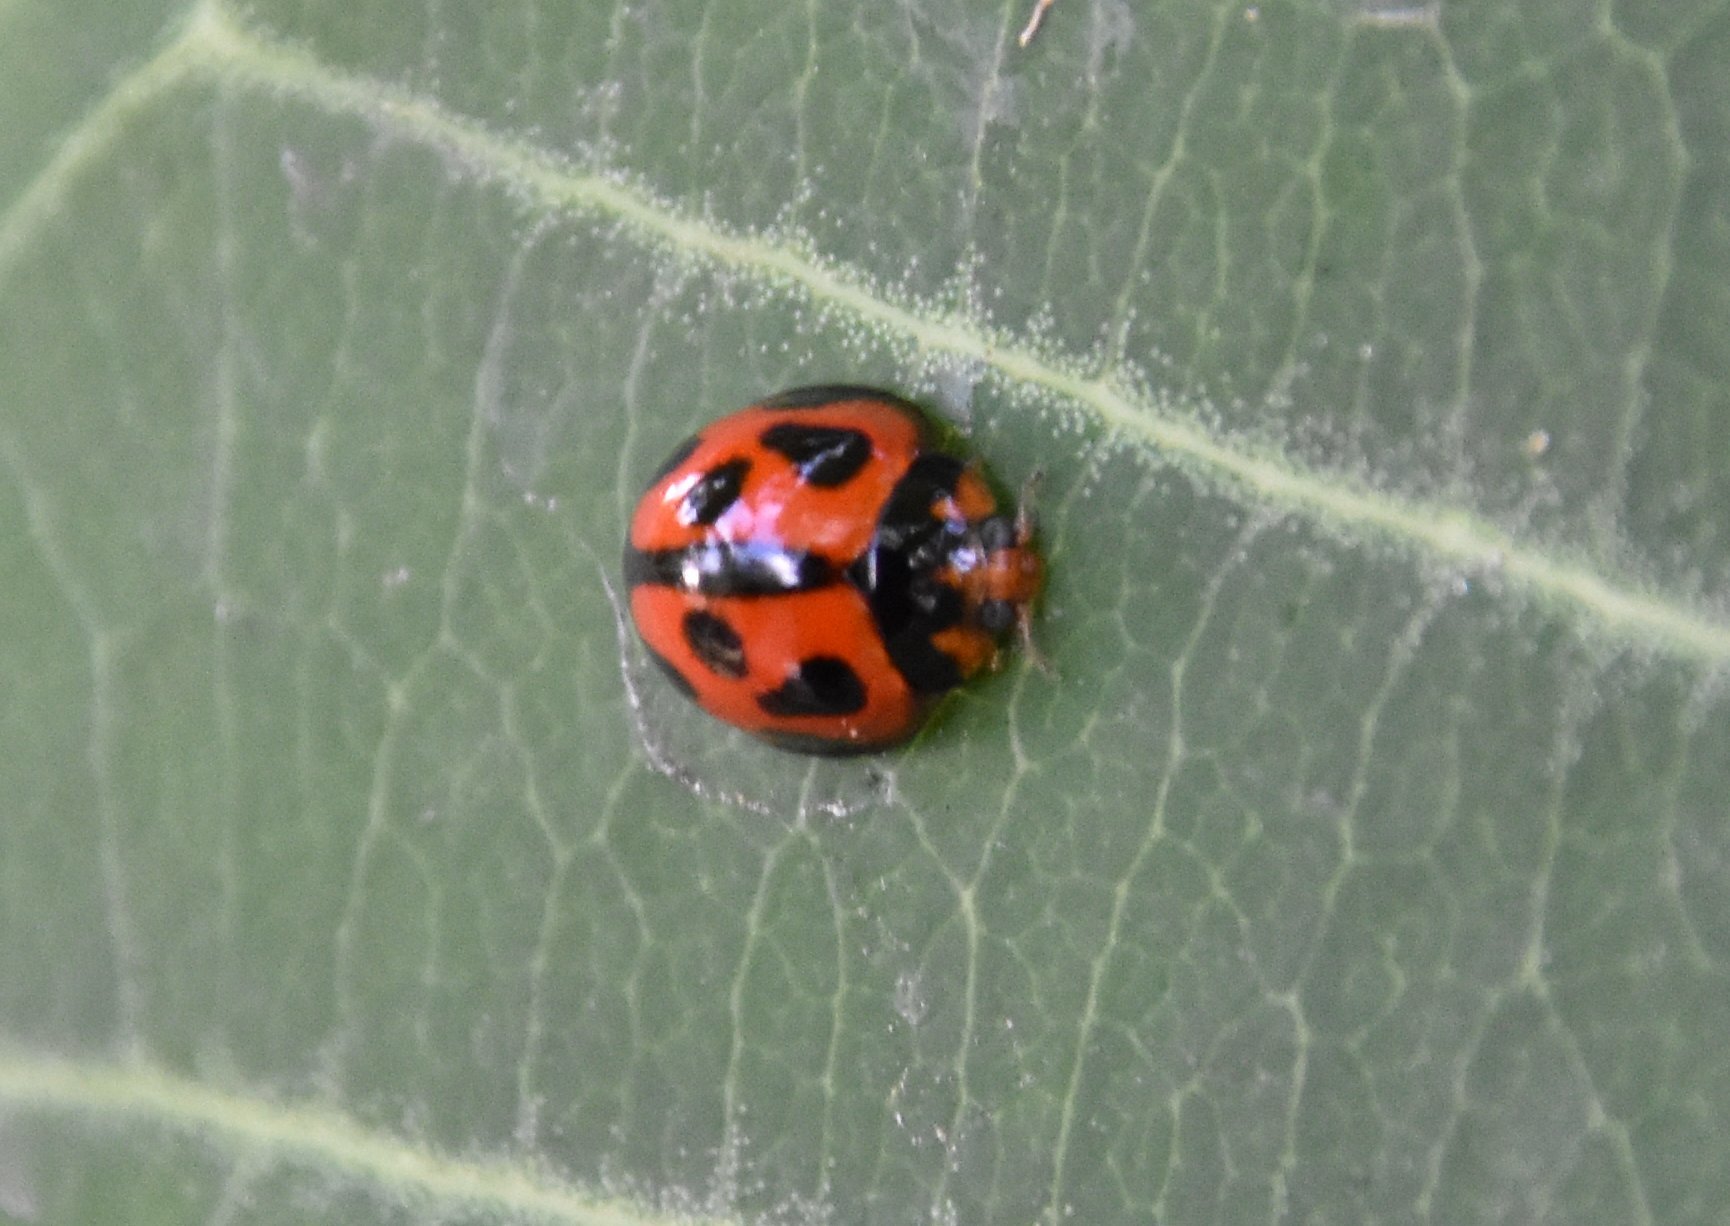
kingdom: Animalia
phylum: Arthropoda
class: Insecta
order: Coleoptera
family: Coccinellidae
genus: Coelophora
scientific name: Coelophora inaequalis
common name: Common australian lady beetle
